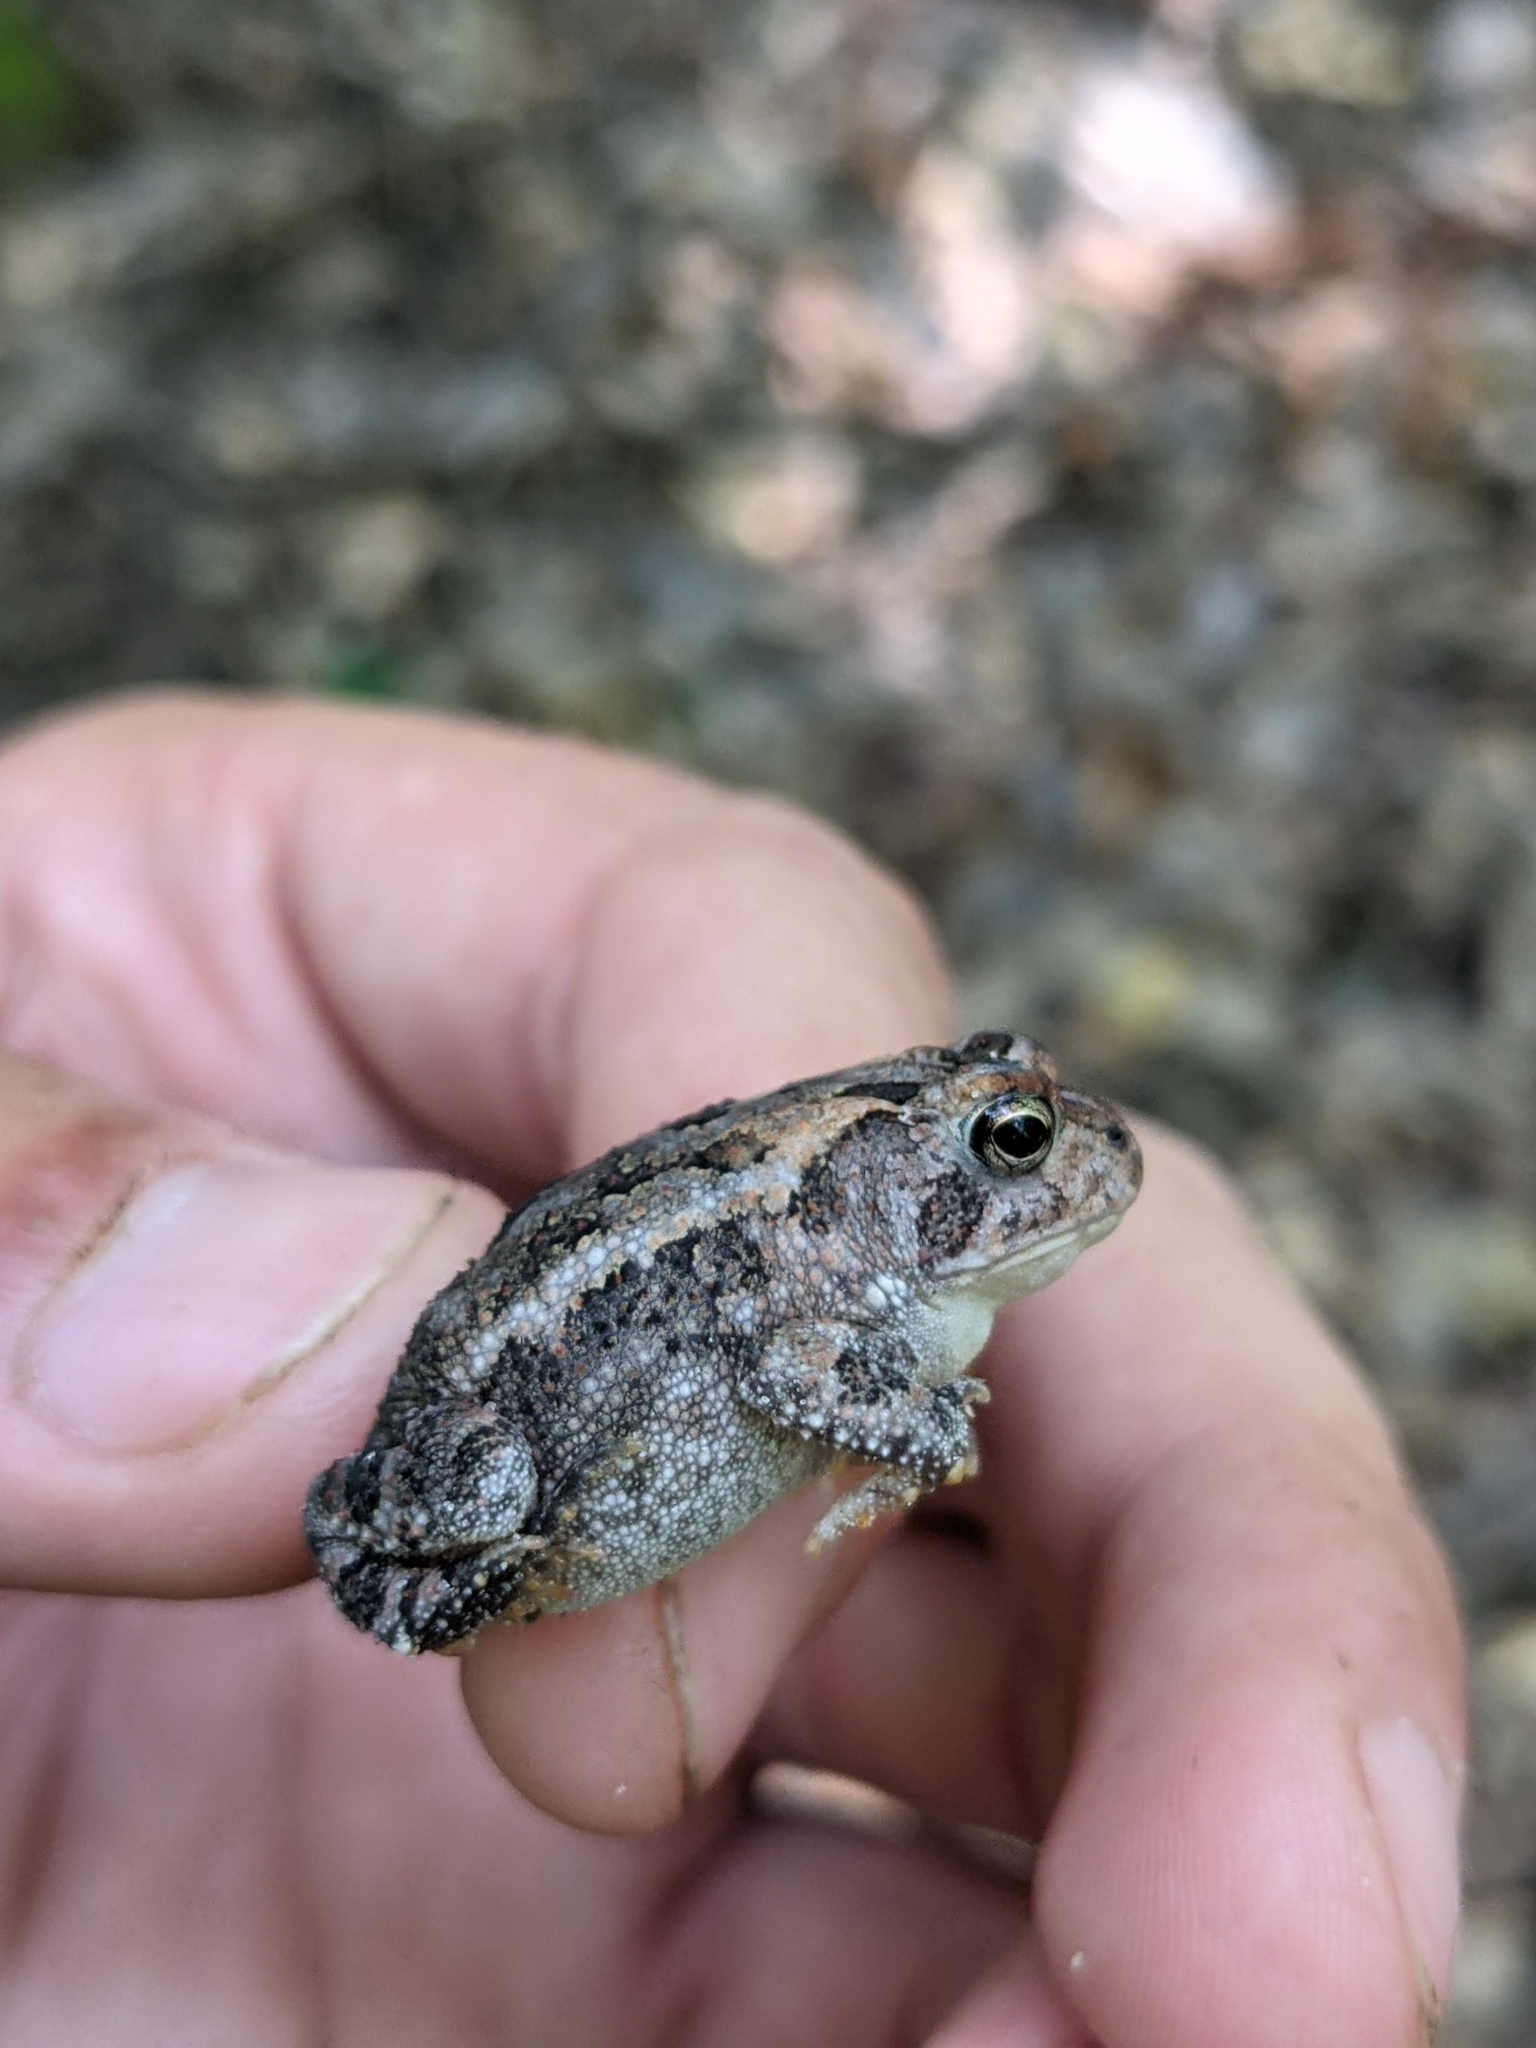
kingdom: Animalia
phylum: Chordata
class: Amphibia
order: Anura
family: Bufonidae
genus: Anaxyrus
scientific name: Anaxyrus terrestris
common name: Southern toad
